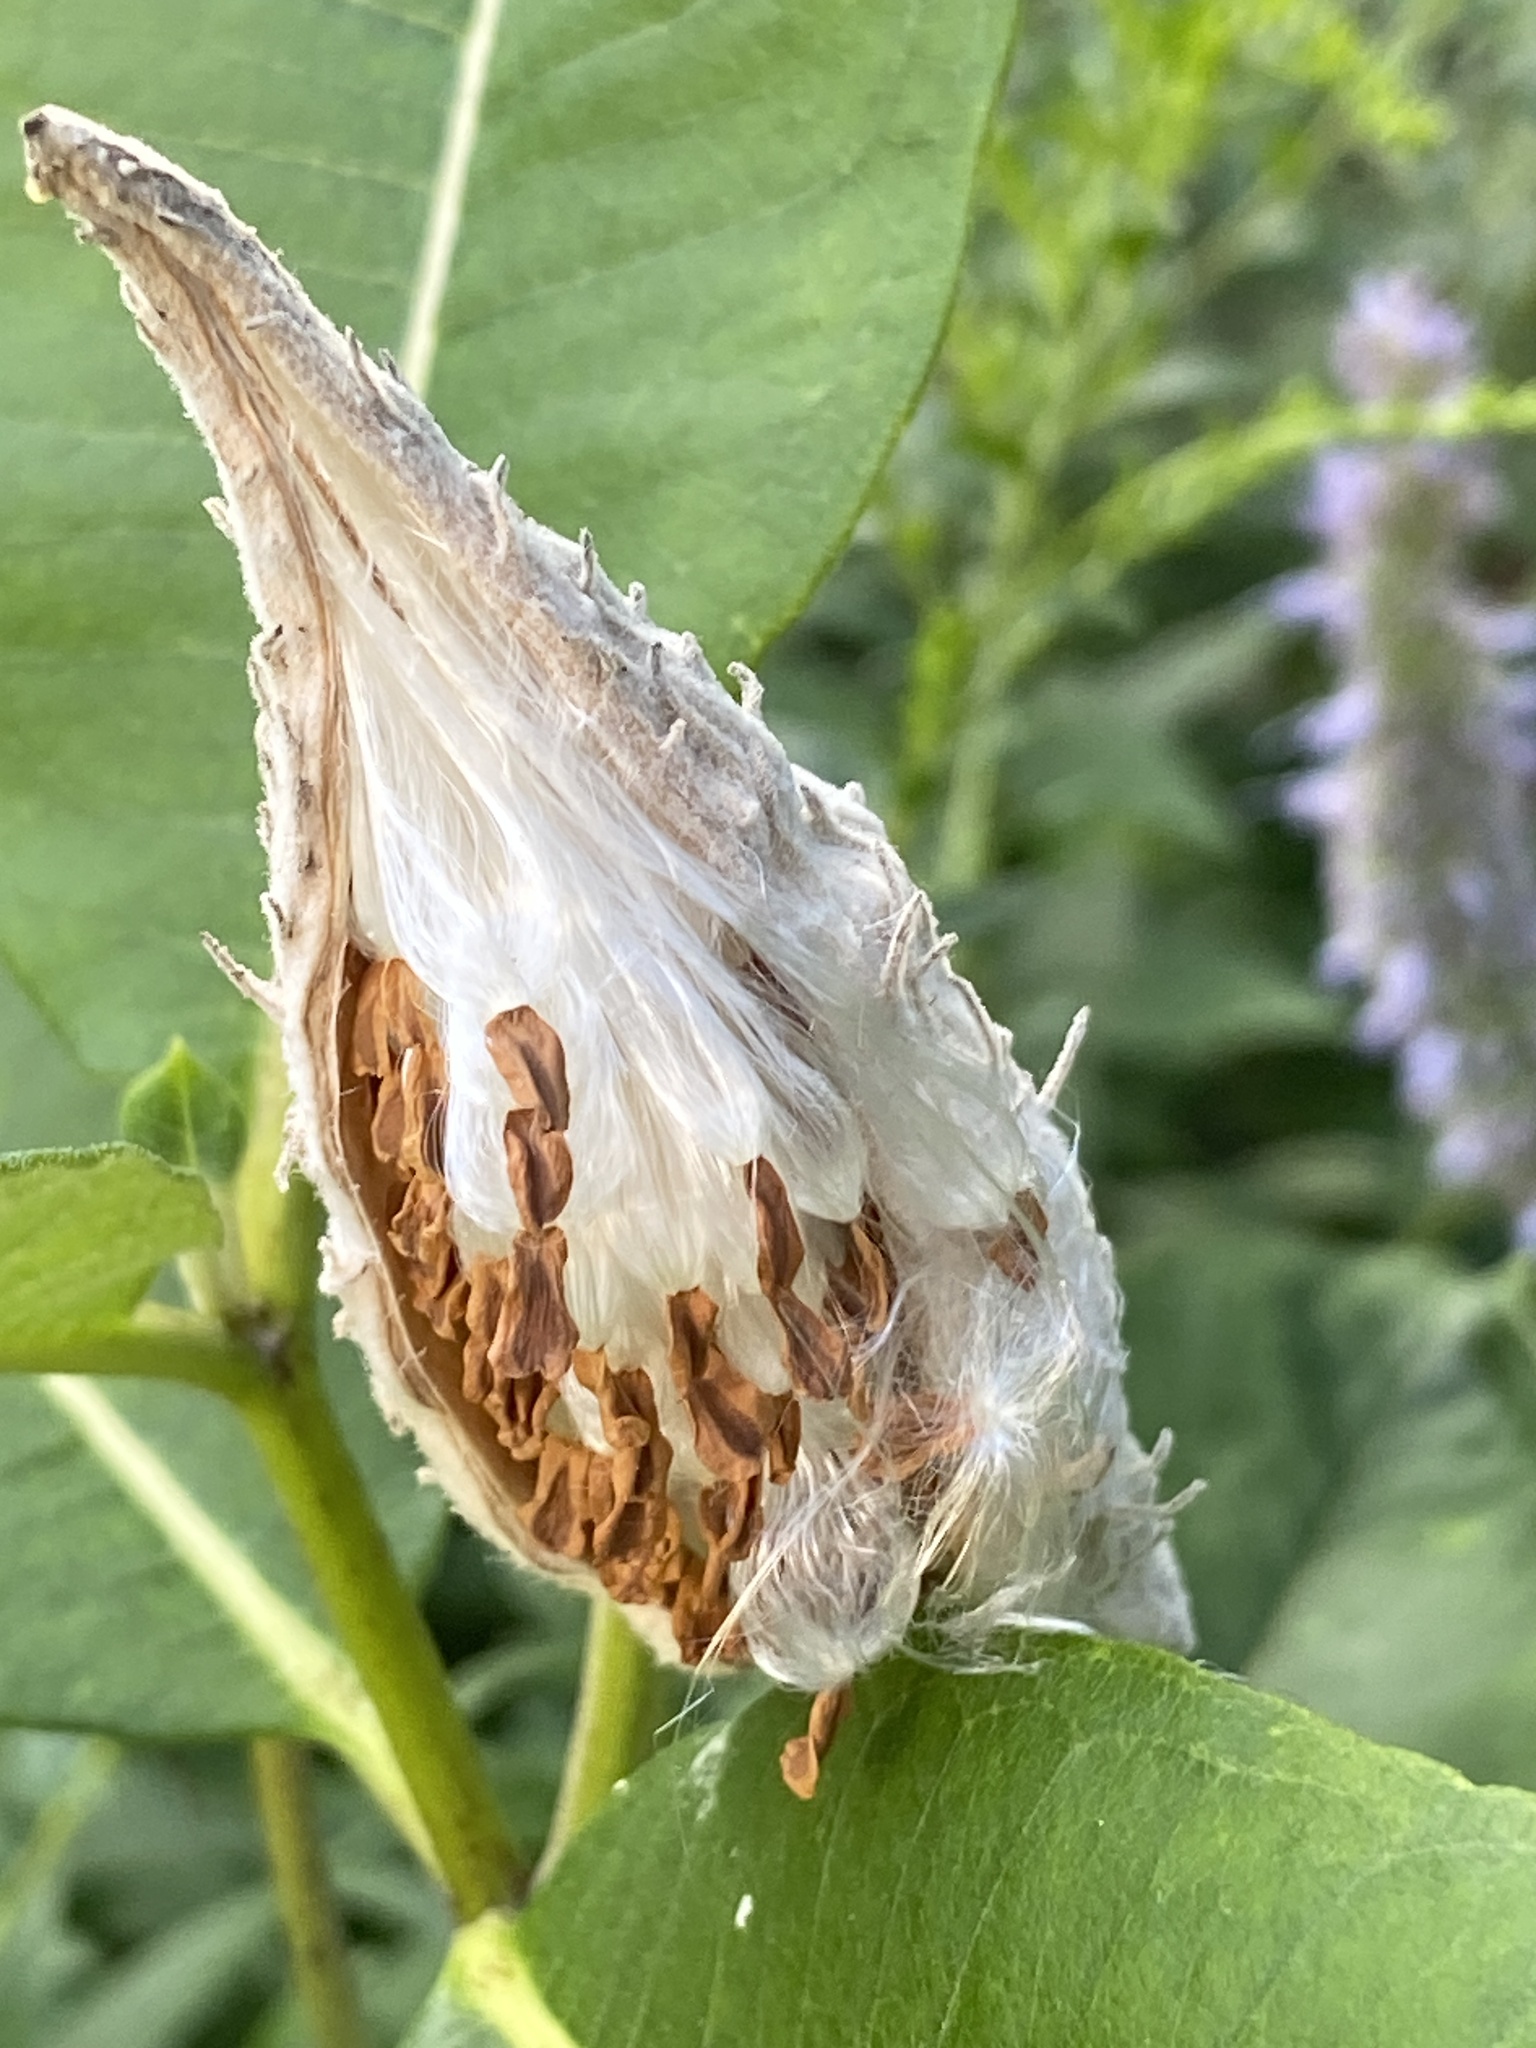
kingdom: Plantae
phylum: Tracheophyta
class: Magnoliopsida
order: Gentianales
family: Apocynaceae
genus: Asclepias
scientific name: Asclepias syriaca
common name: Common milkweed
